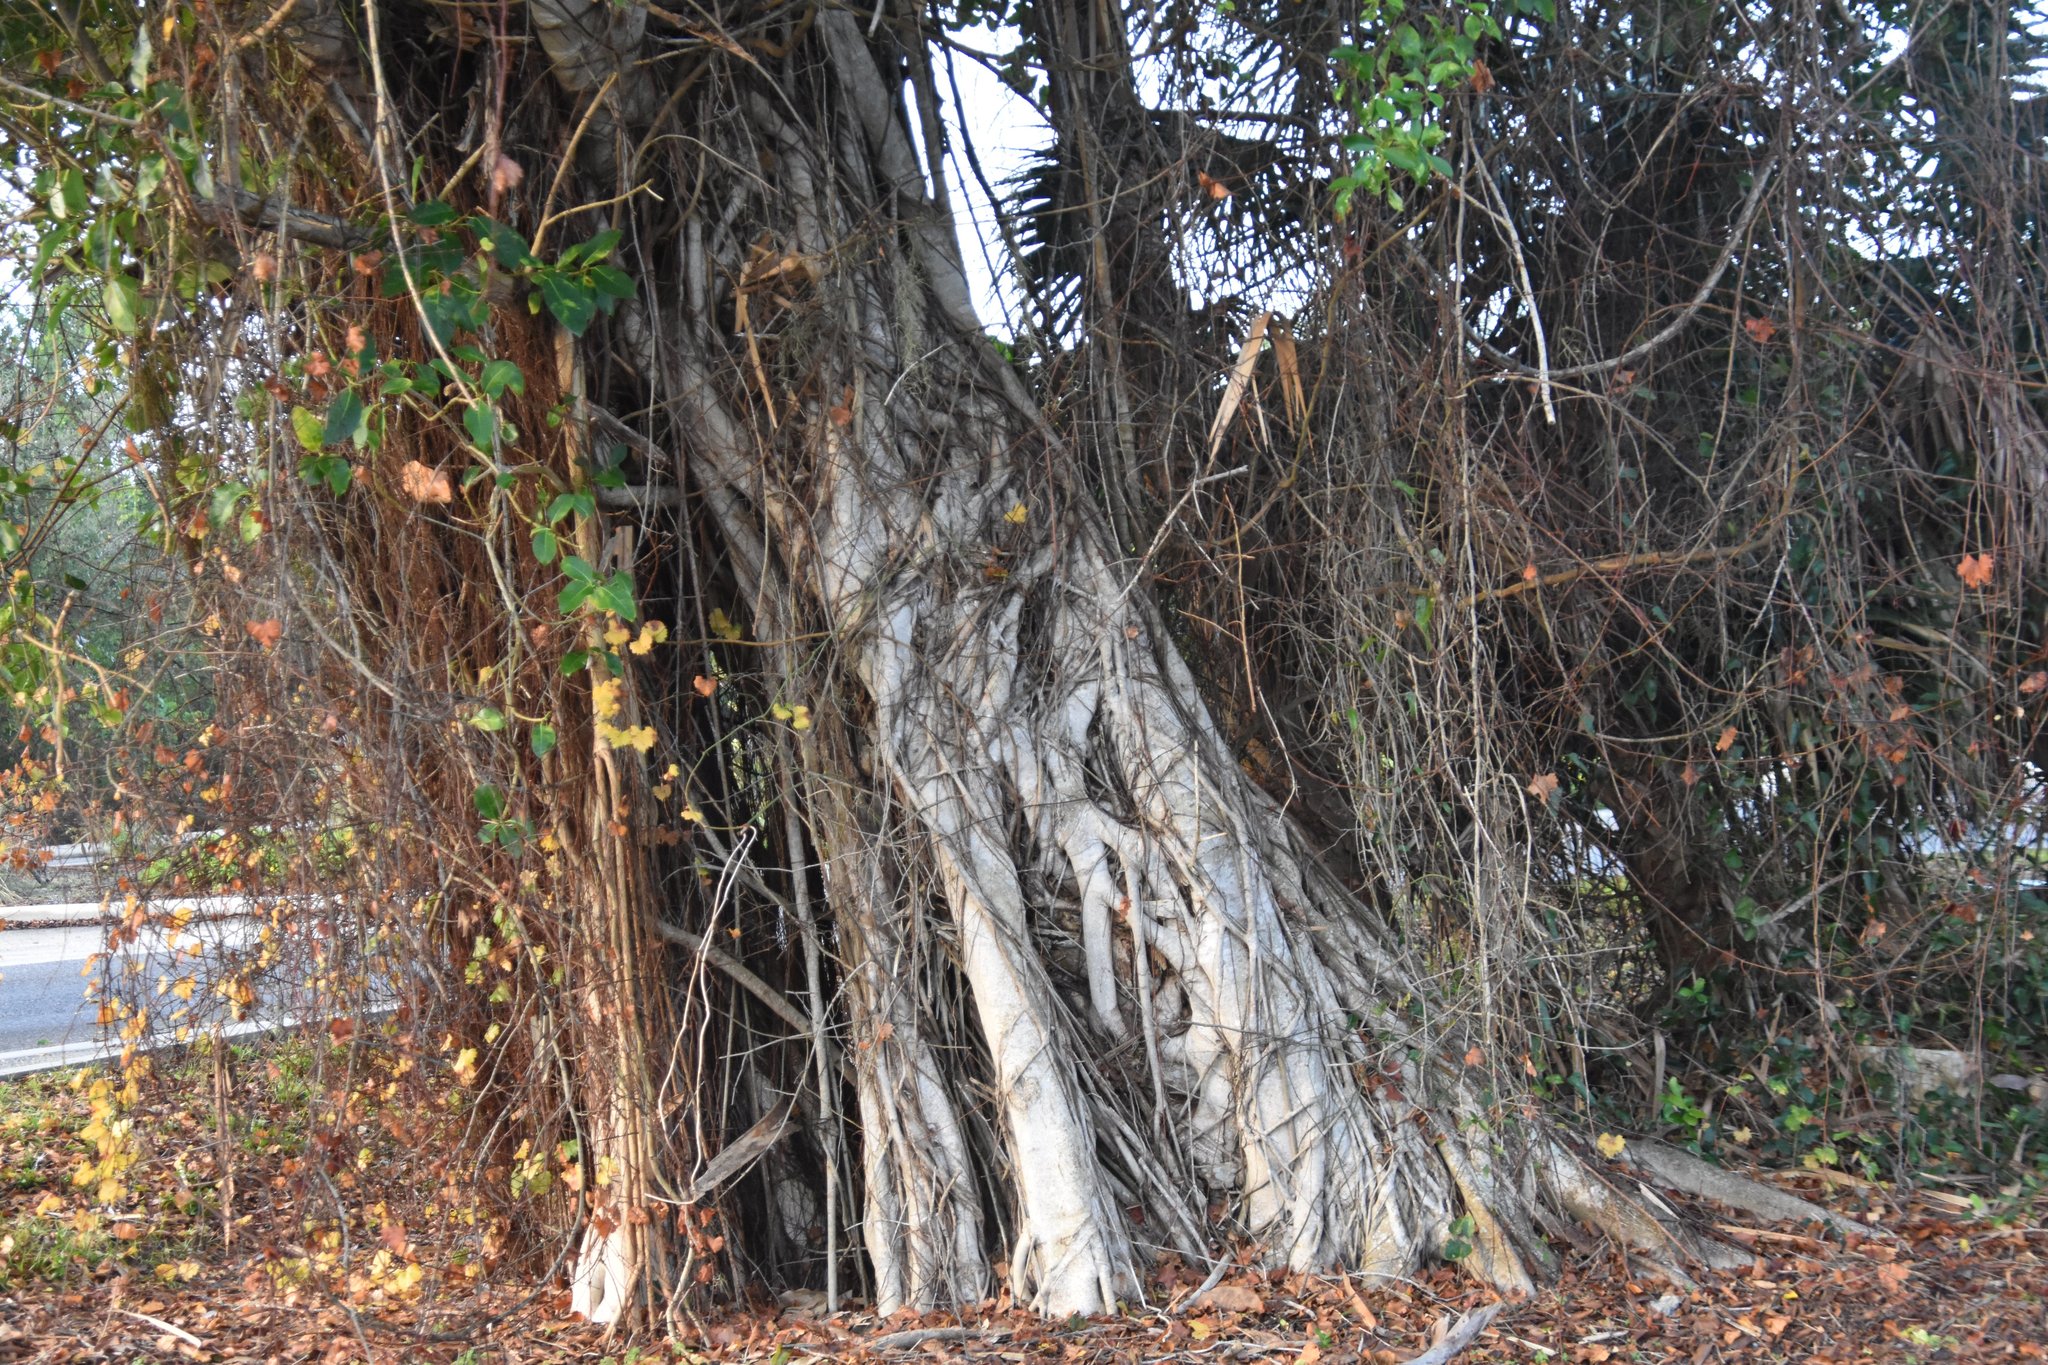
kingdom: Plantae
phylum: Tracheophyta
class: Magnoliopsida
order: Rosales
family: Moraceae
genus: Ficus
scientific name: Ficus aurea
